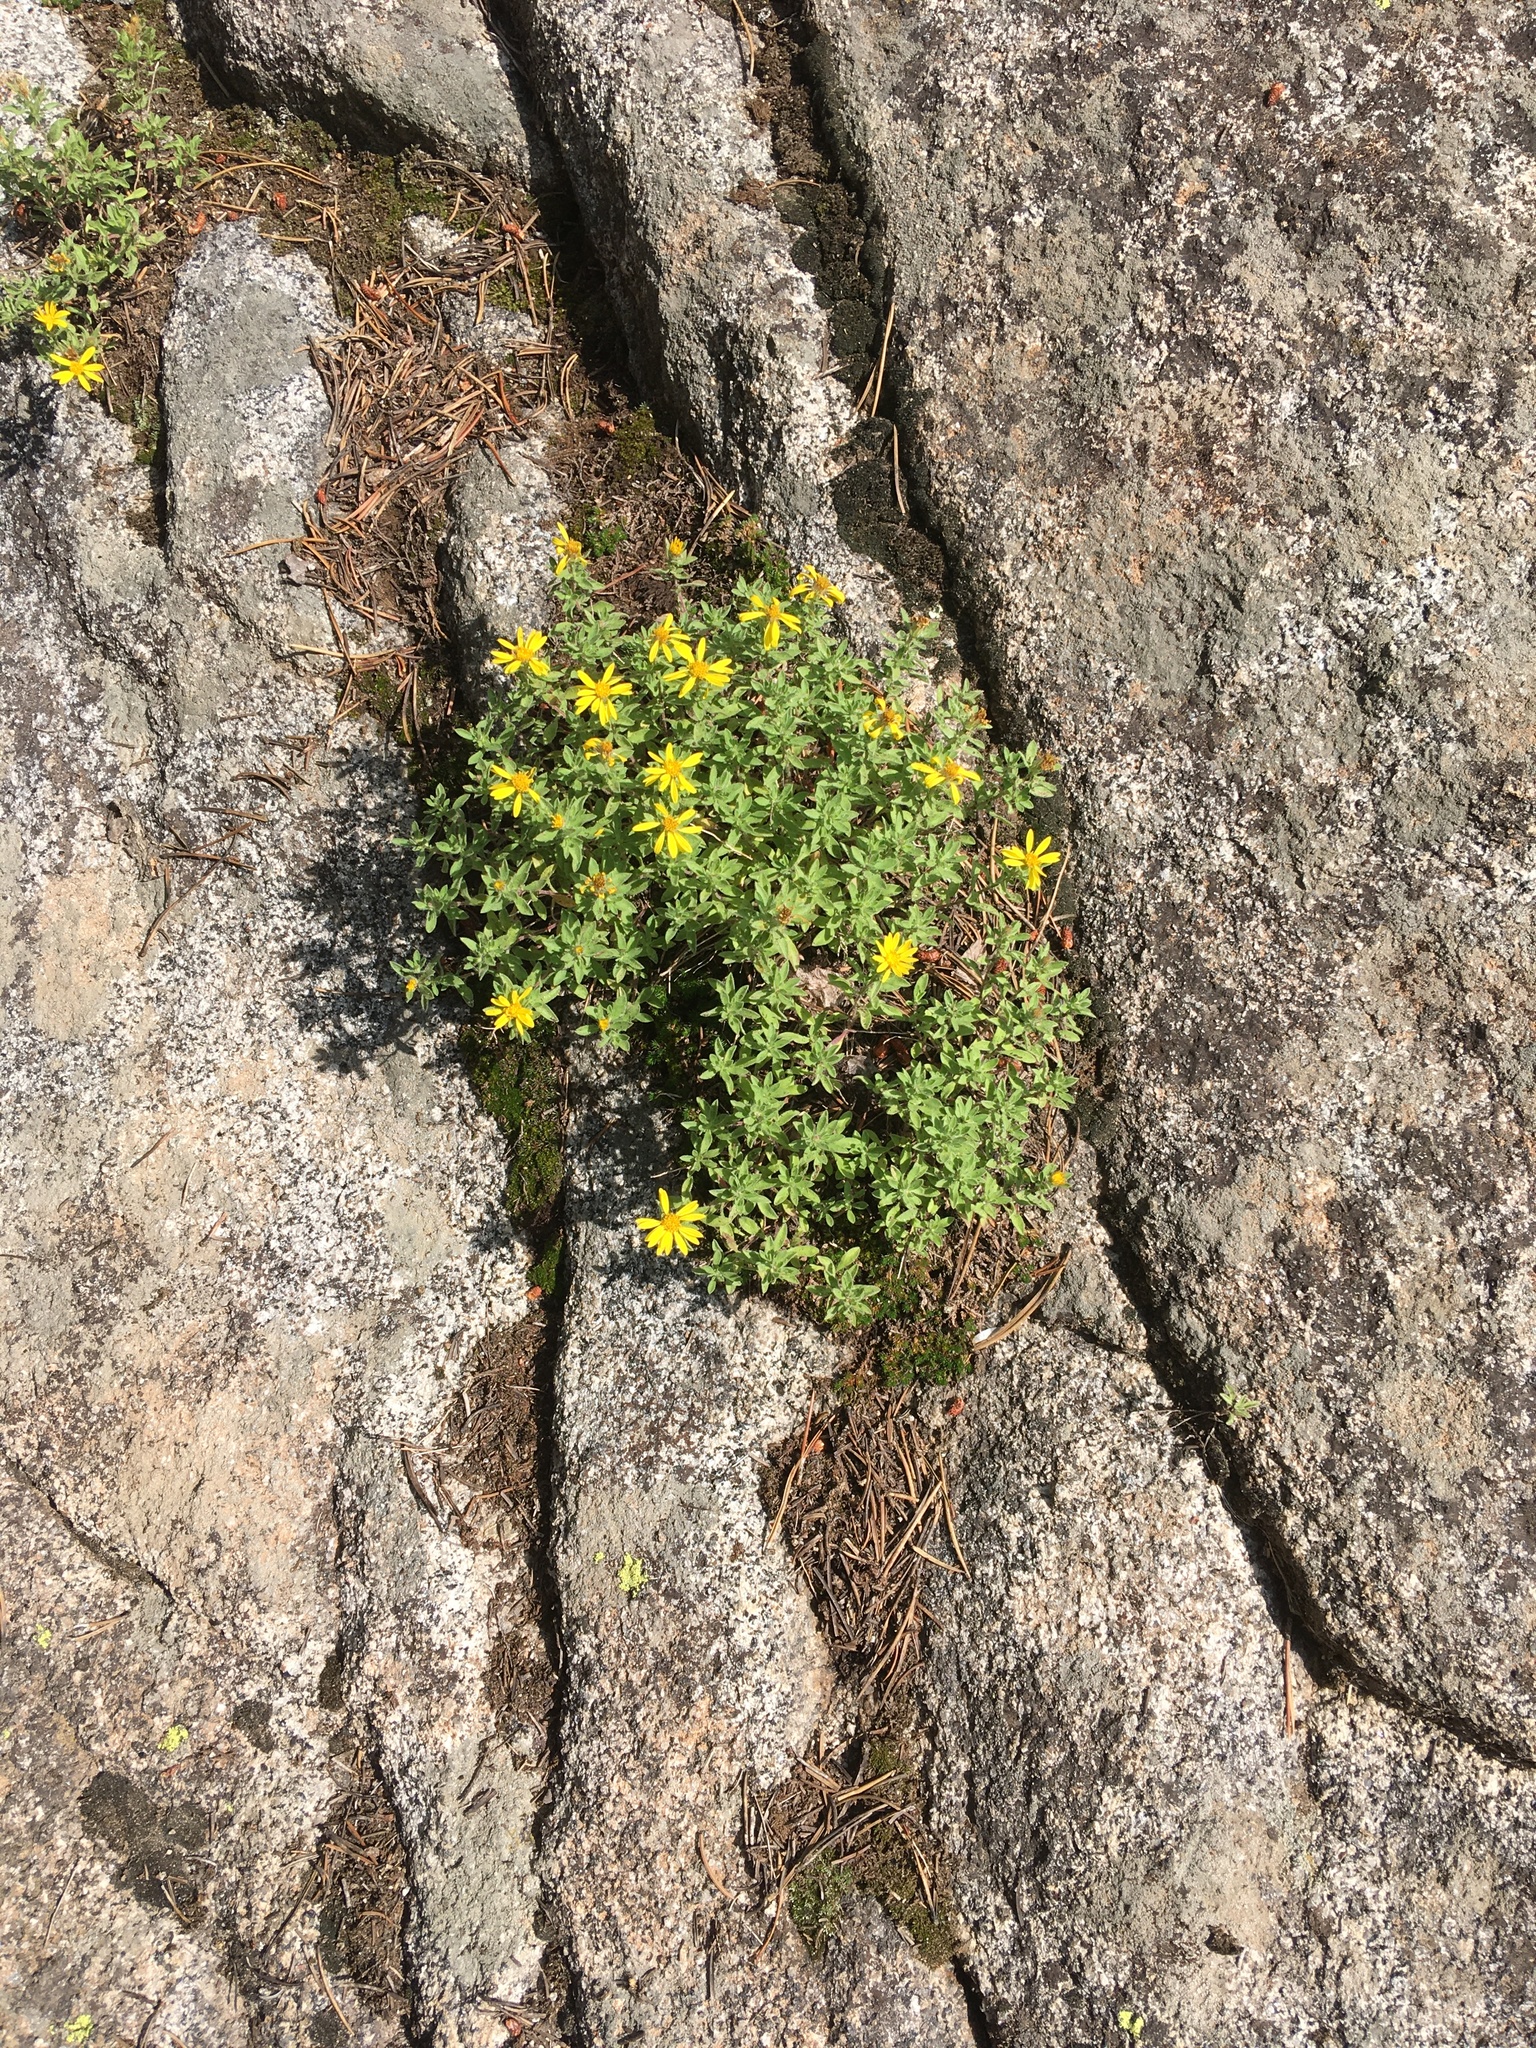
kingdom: Plantae
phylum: Tracheophyta
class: Magnoliopsida
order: Asterales
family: Asteraceae
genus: Heterotheca
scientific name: Heterotheca villosa
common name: Hairy false goldenaster
